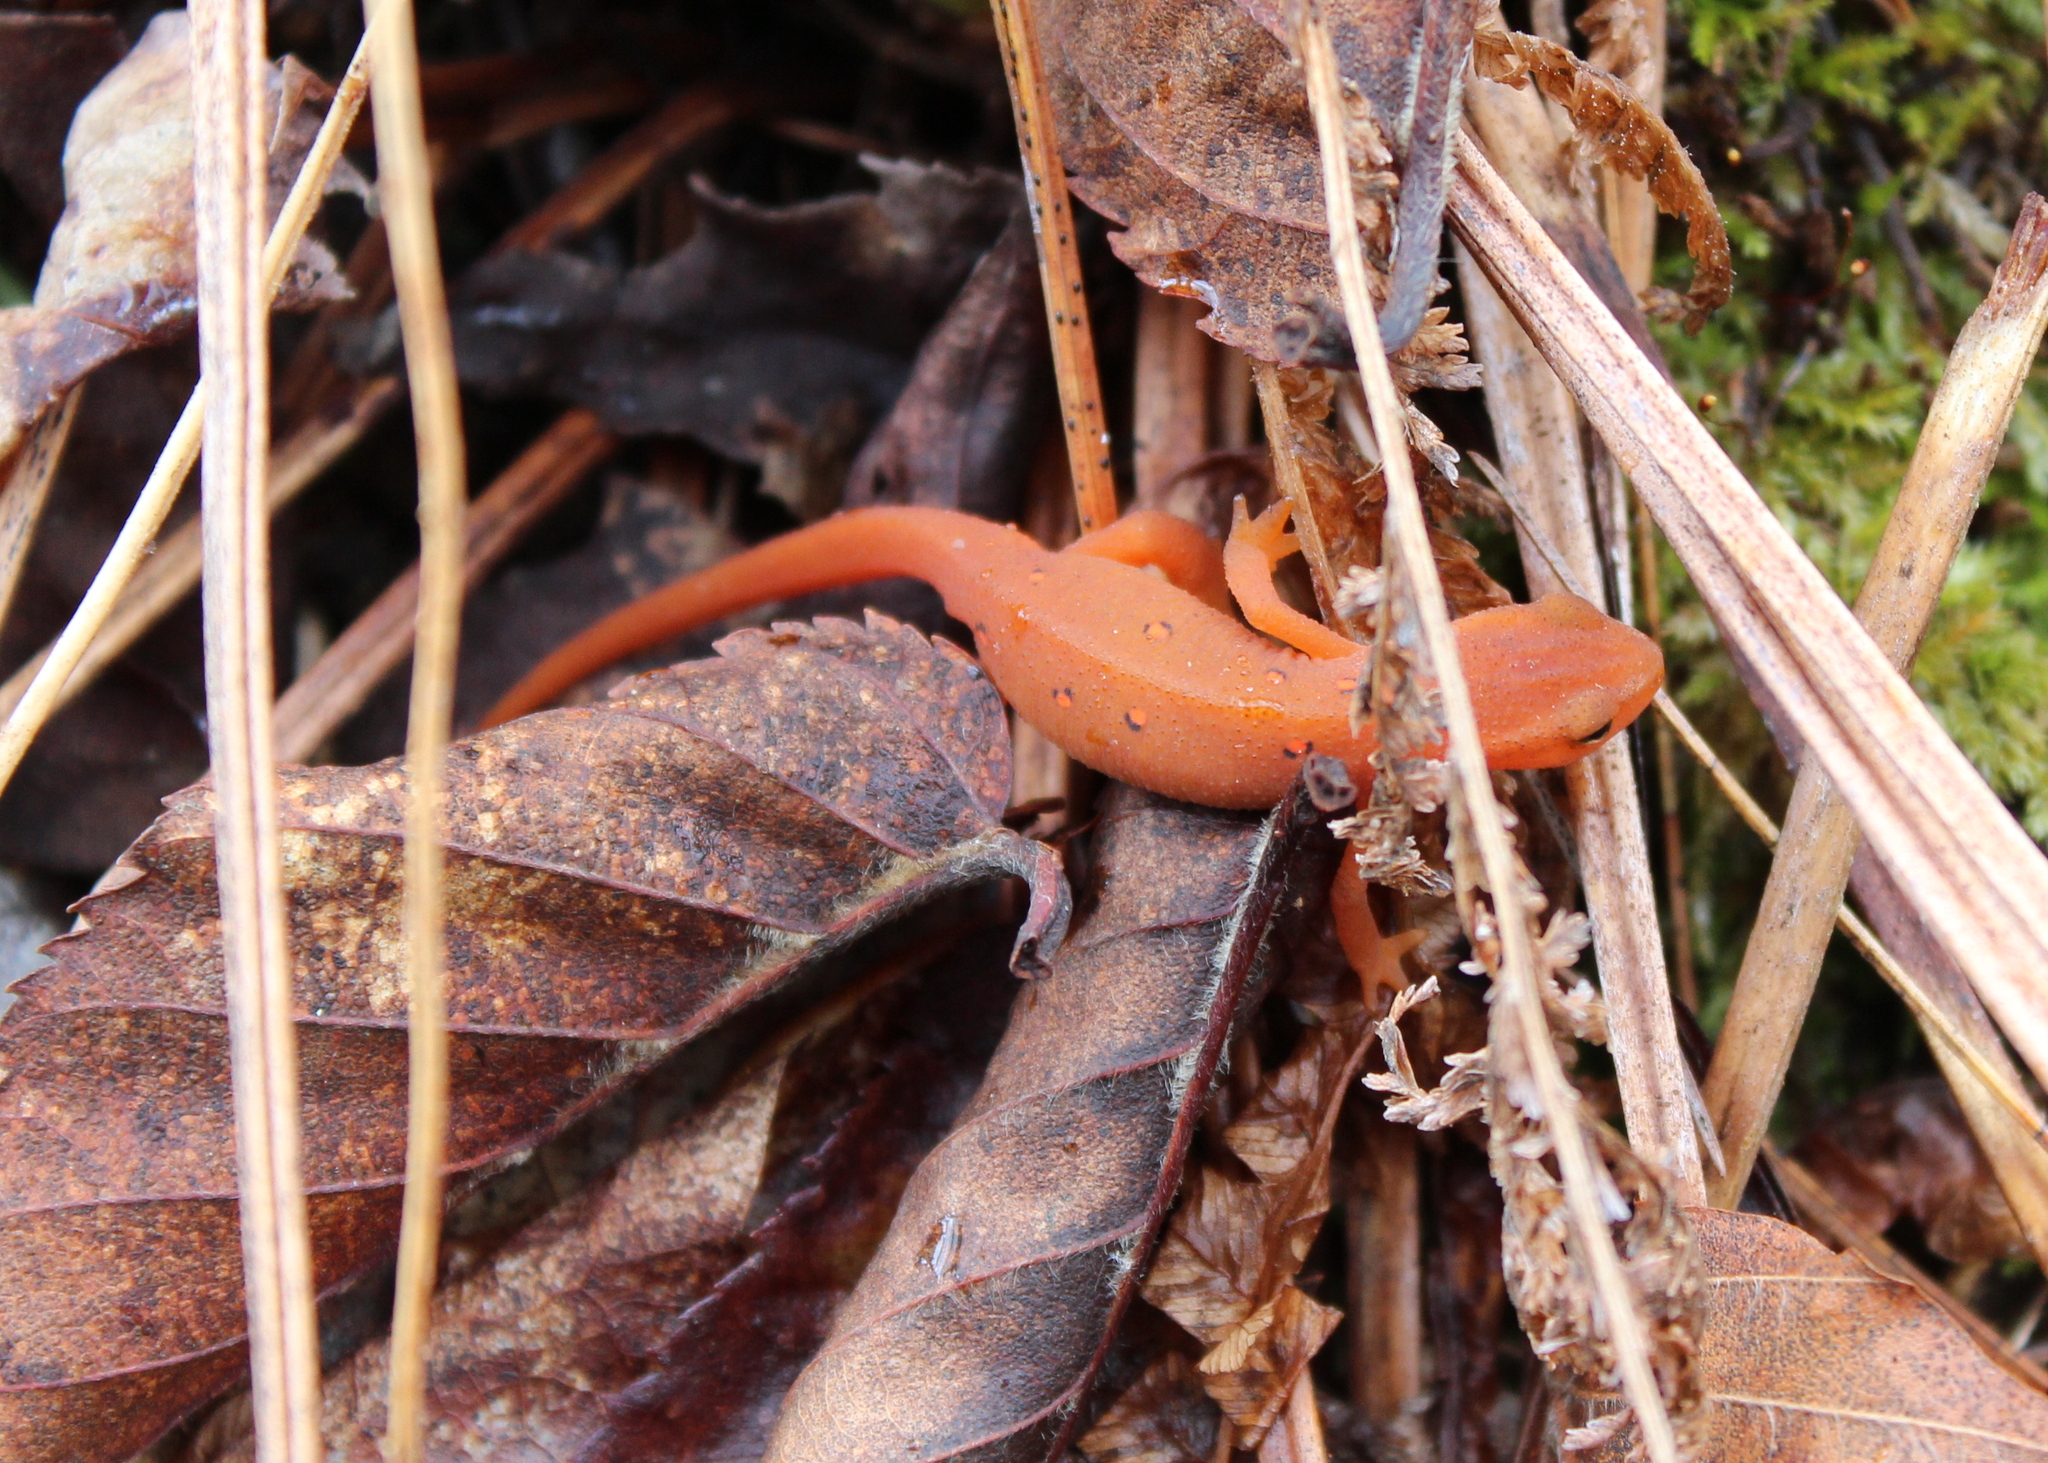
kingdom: Animalia
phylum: Chordata
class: Amphibia
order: Caudata
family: Salamandridae
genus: Notophthalmus
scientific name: Notophthalmus viridescens
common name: Eastern newt
